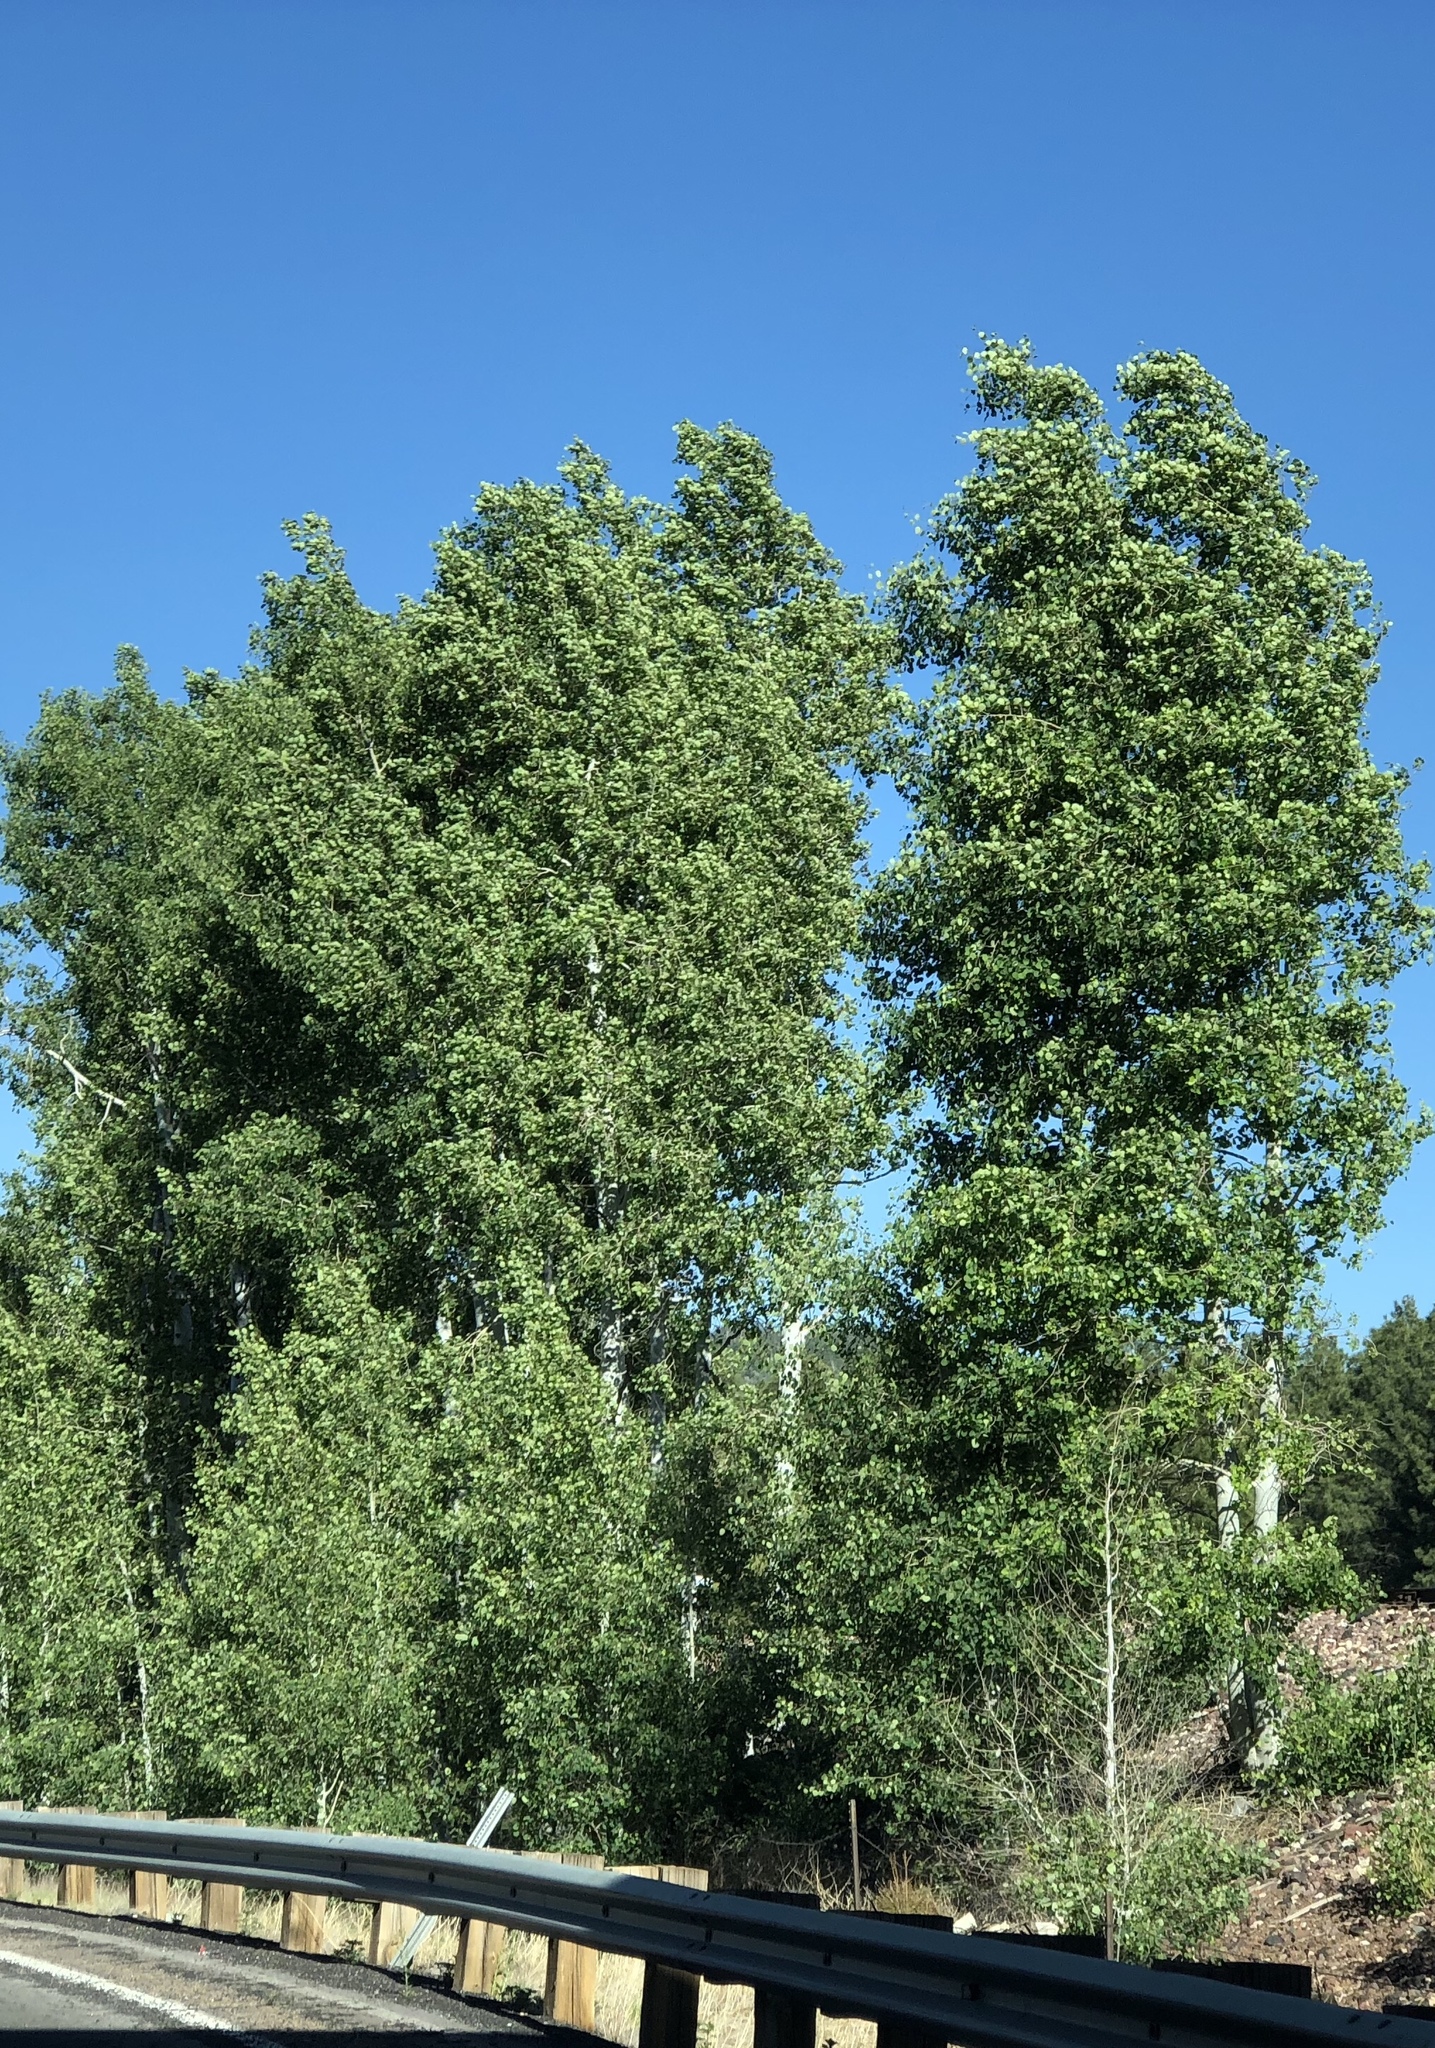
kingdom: Plantae
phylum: Tracheophyta
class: Magnoliopsida
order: Malpighiales
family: Salicaceae
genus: Populus
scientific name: Populus tremuloides
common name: Quaking aspen
